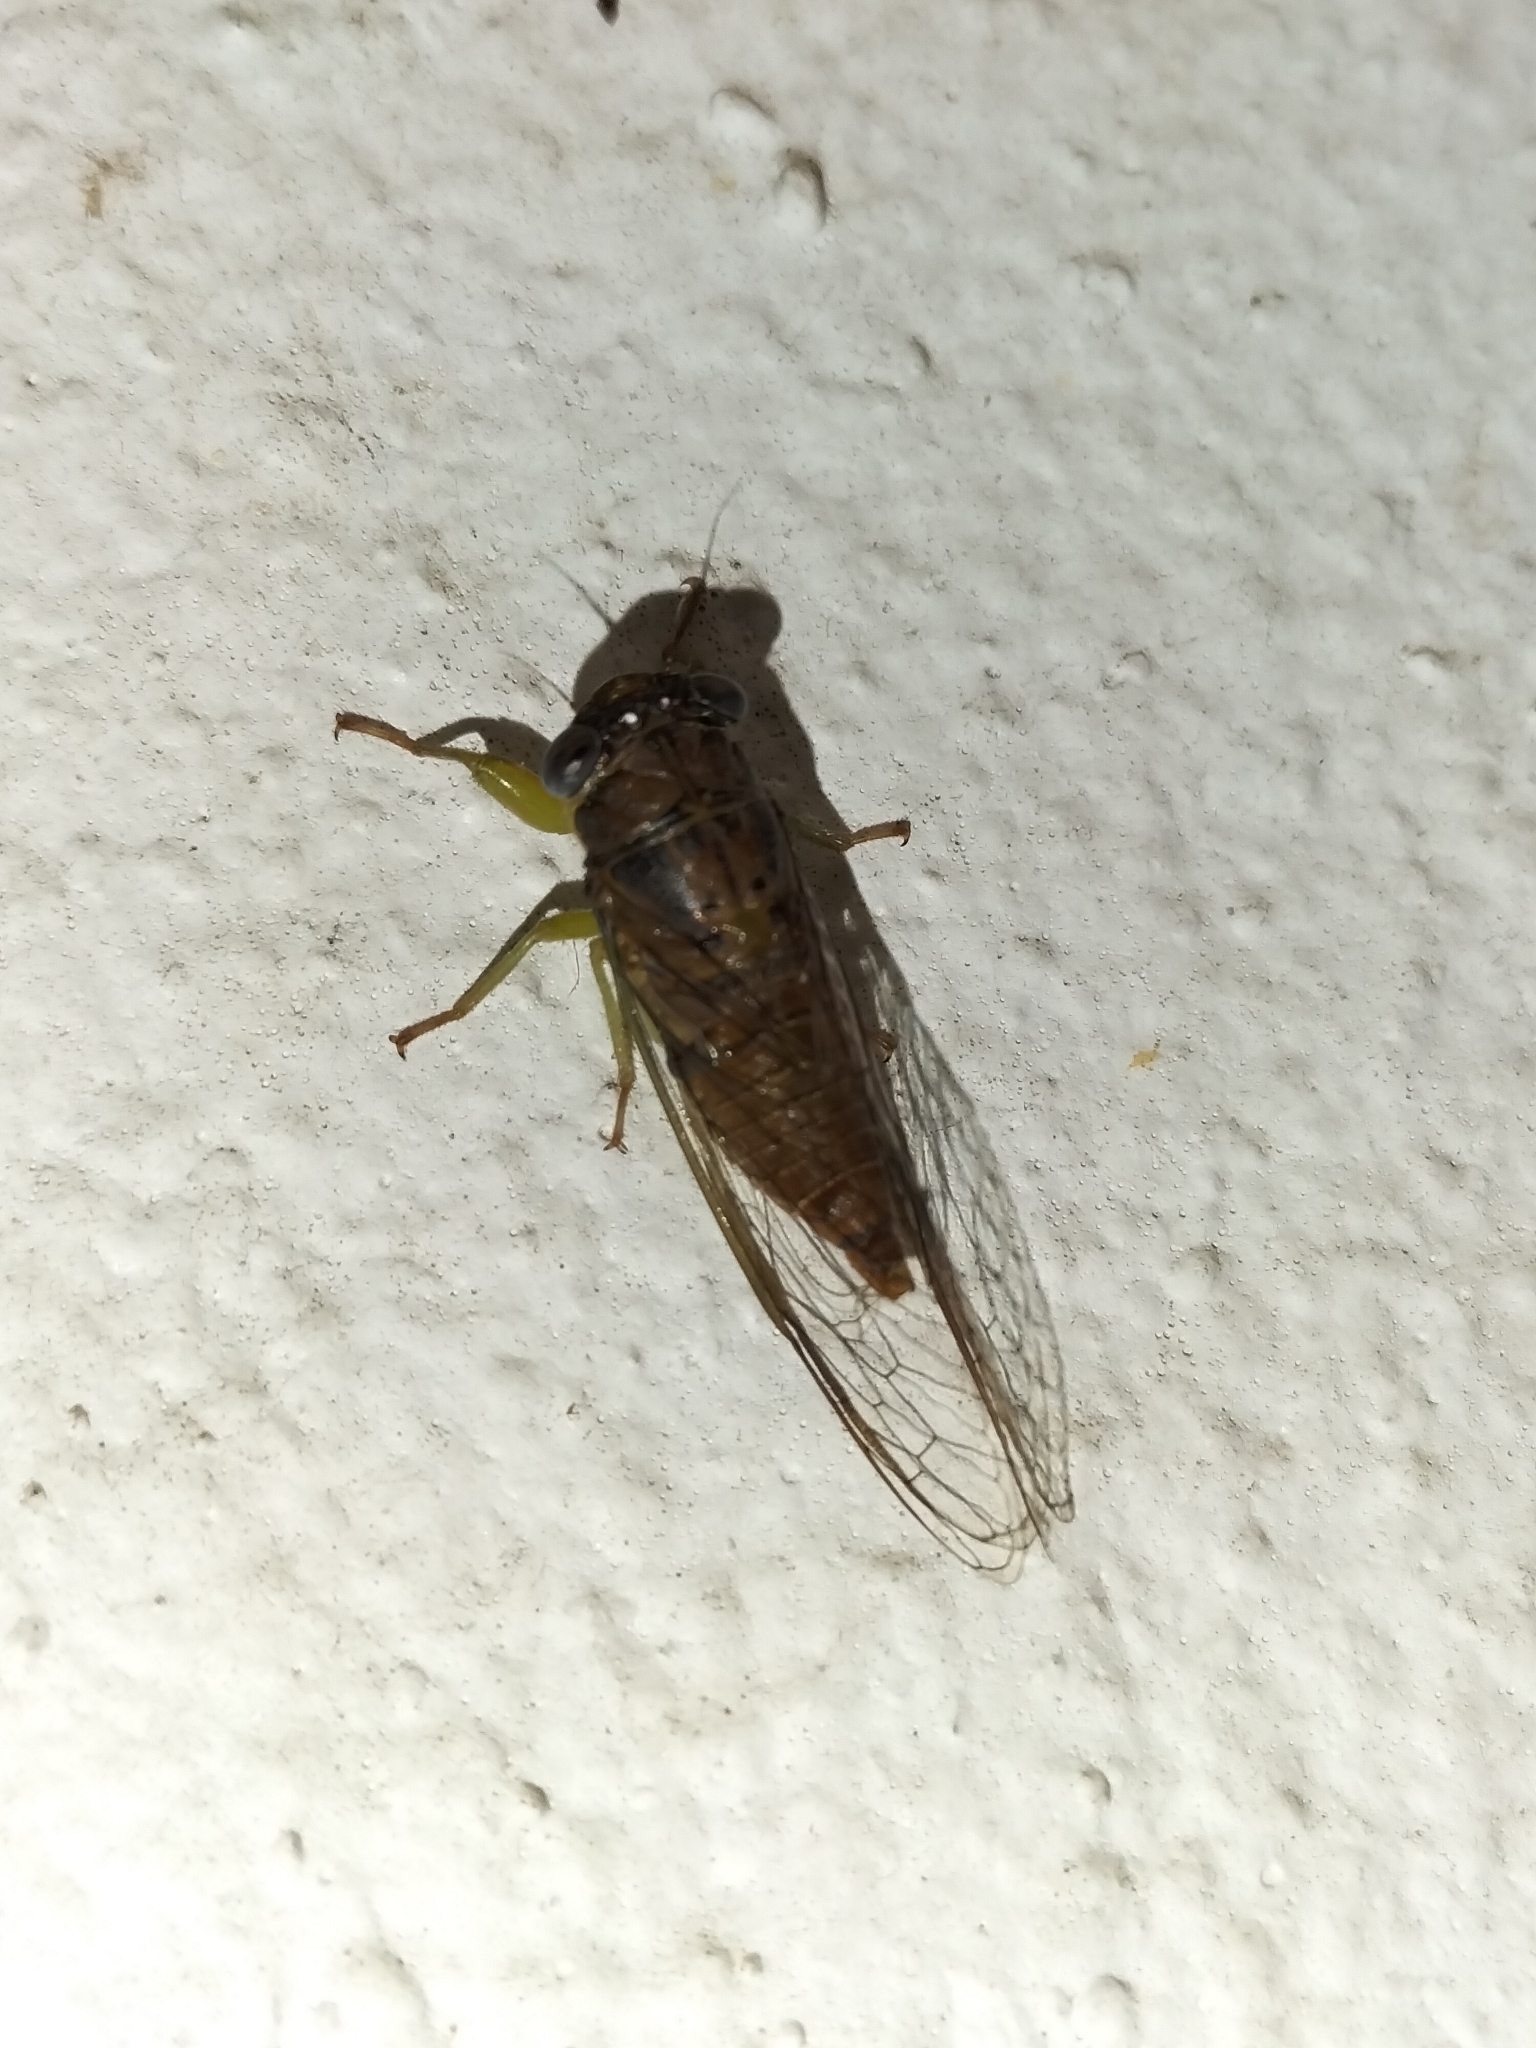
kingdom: Animalia
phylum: Arthropoda
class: Insecta
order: Hemiptera
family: Cicadidae
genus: Taurella
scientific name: Taurella forresti
